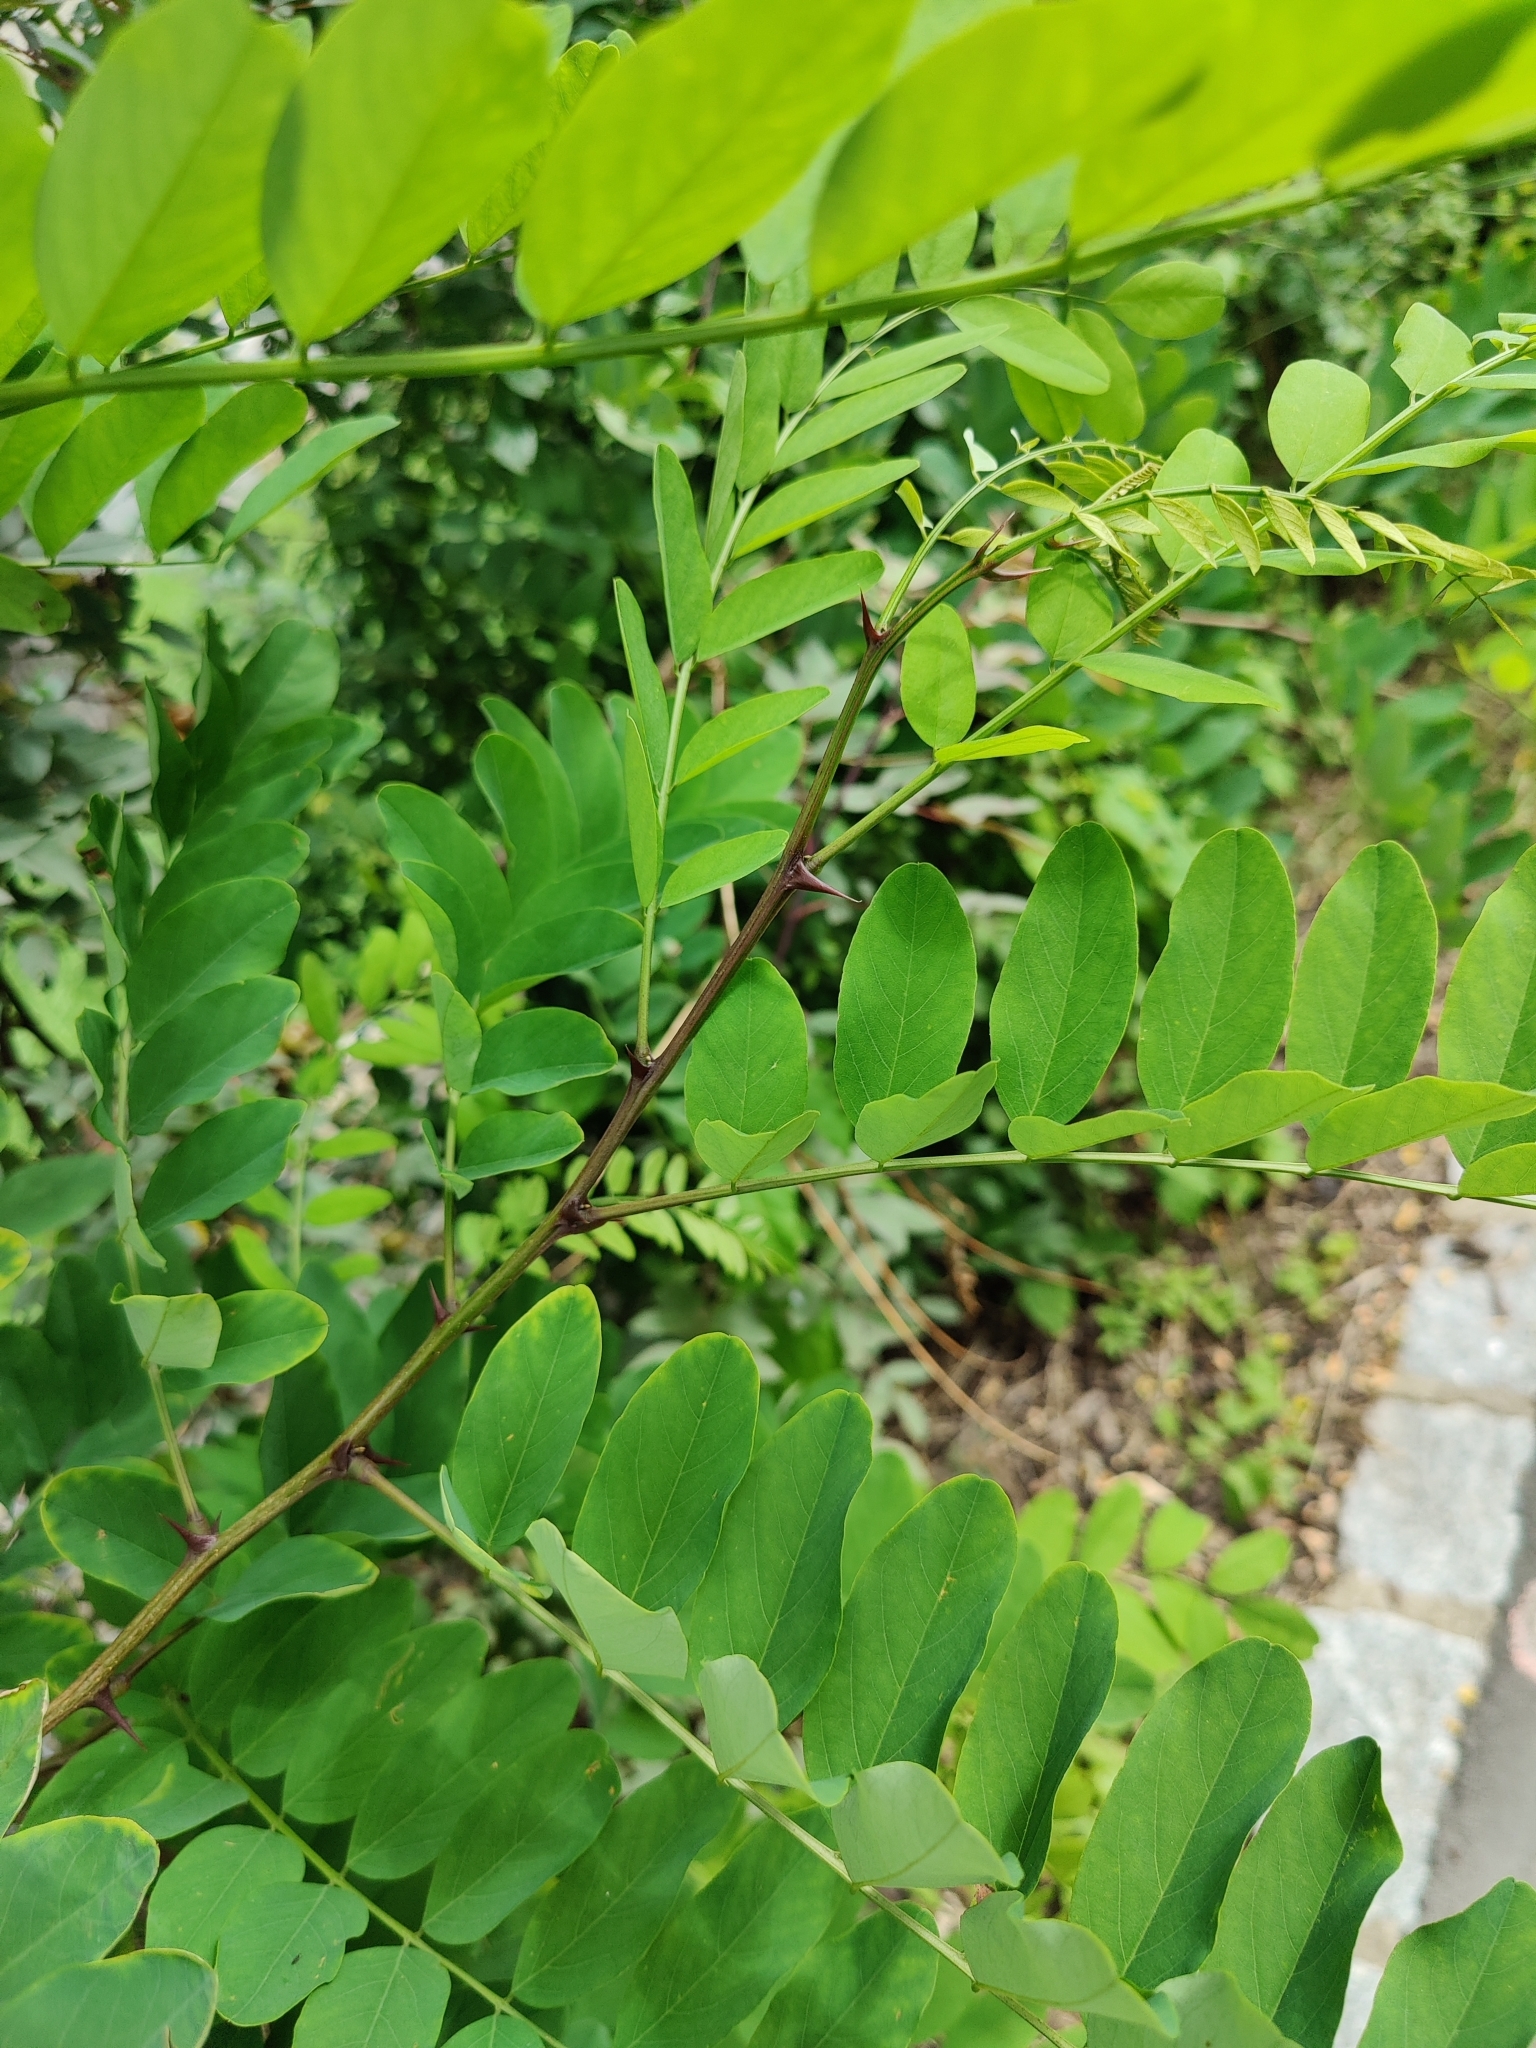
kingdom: Plantae
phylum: Tracheophyta
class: Magnoliopsida
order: Fabales
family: Fabaceae
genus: Robinia
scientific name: Robinia pseudoacacia
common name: Black locust
